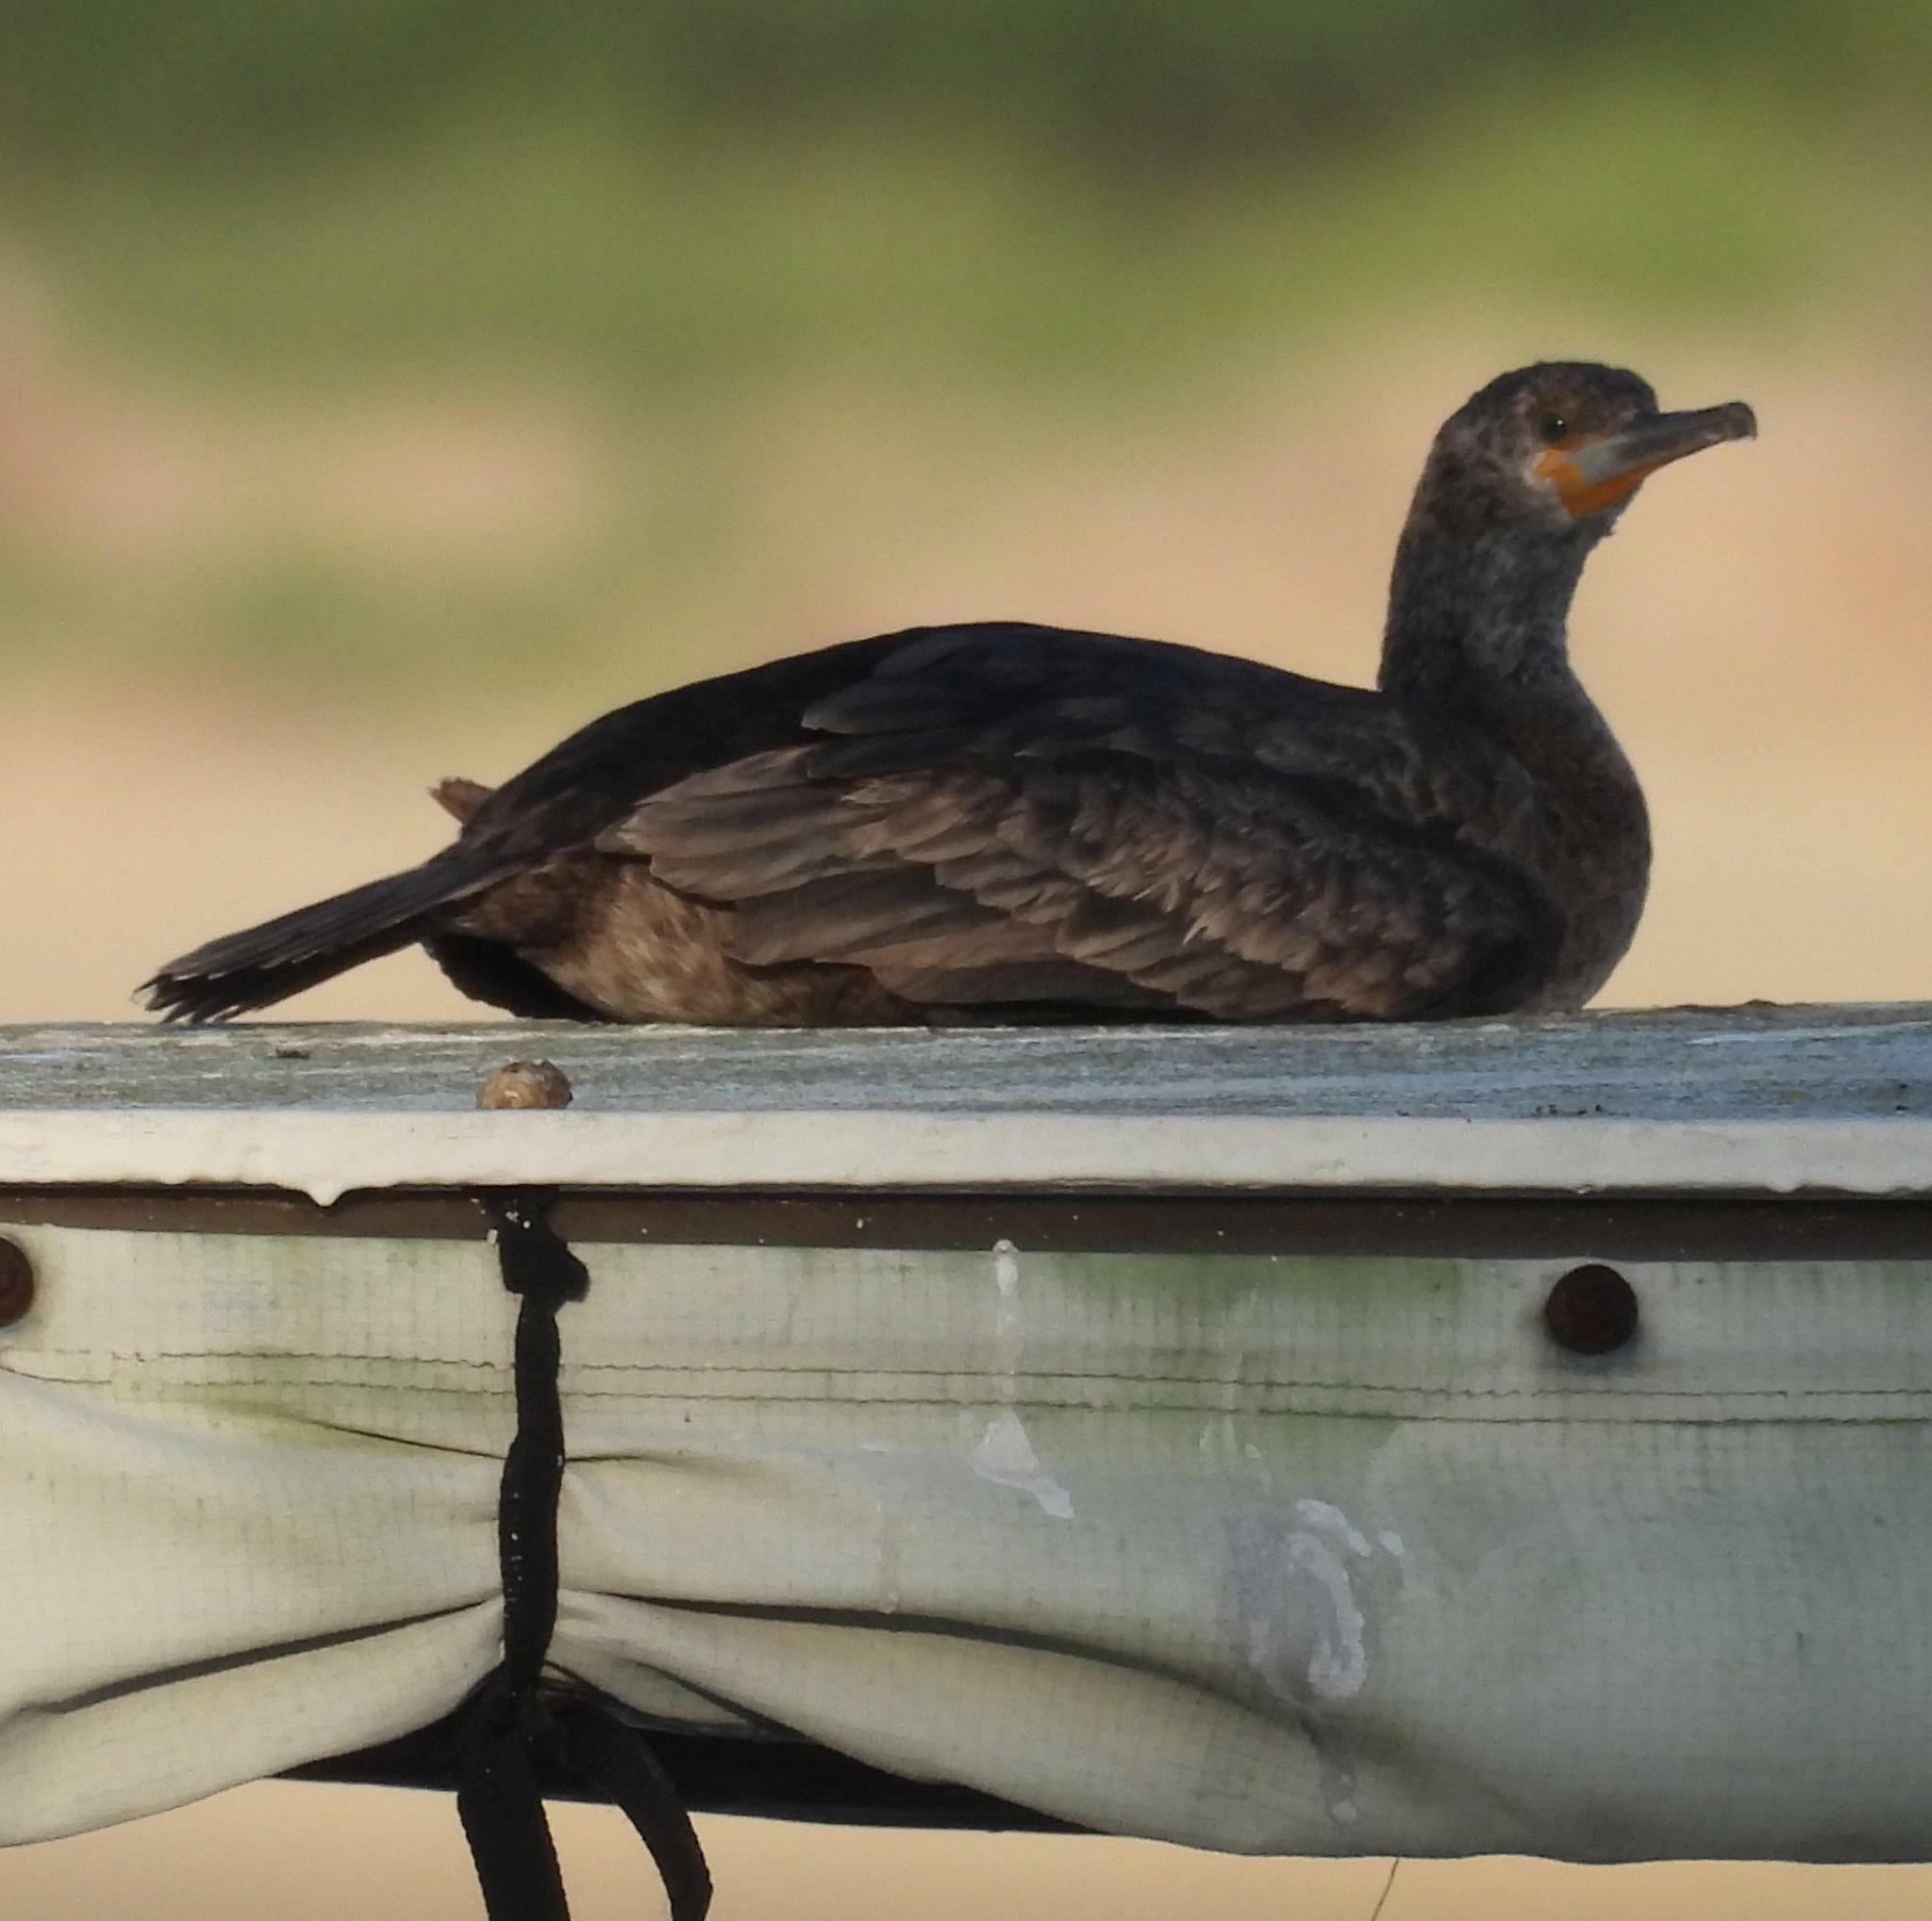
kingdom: Animalia
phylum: Chordata
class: Aves
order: Suliformes
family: Phalacrocoracidae
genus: Phalacrocorax
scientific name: Phalacrocorax capensis
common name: Cape cormorant
